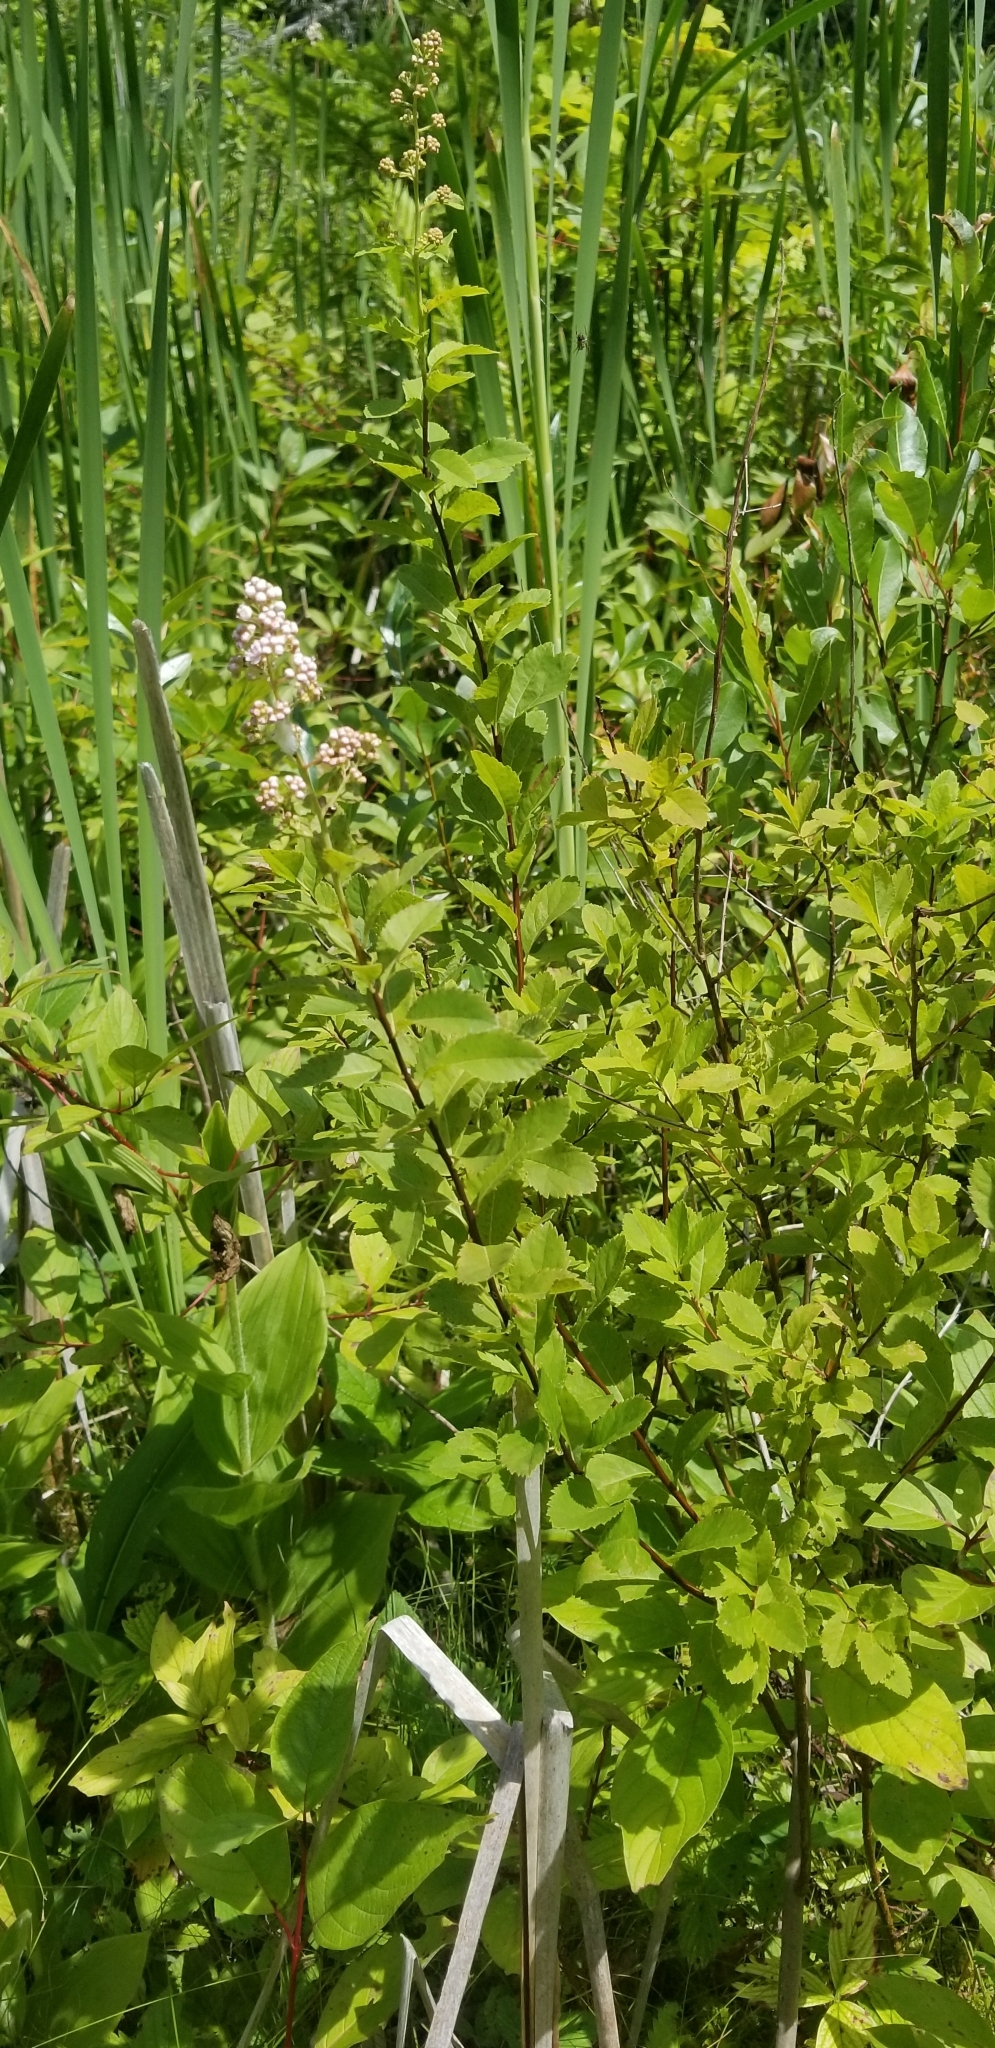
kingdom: Plantae
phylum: Tracheophyta
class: Magnoliopsida
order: Rosales
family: Rosaceae
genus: Spiraea
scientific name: Spiraea alba
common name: Pale bridewort
